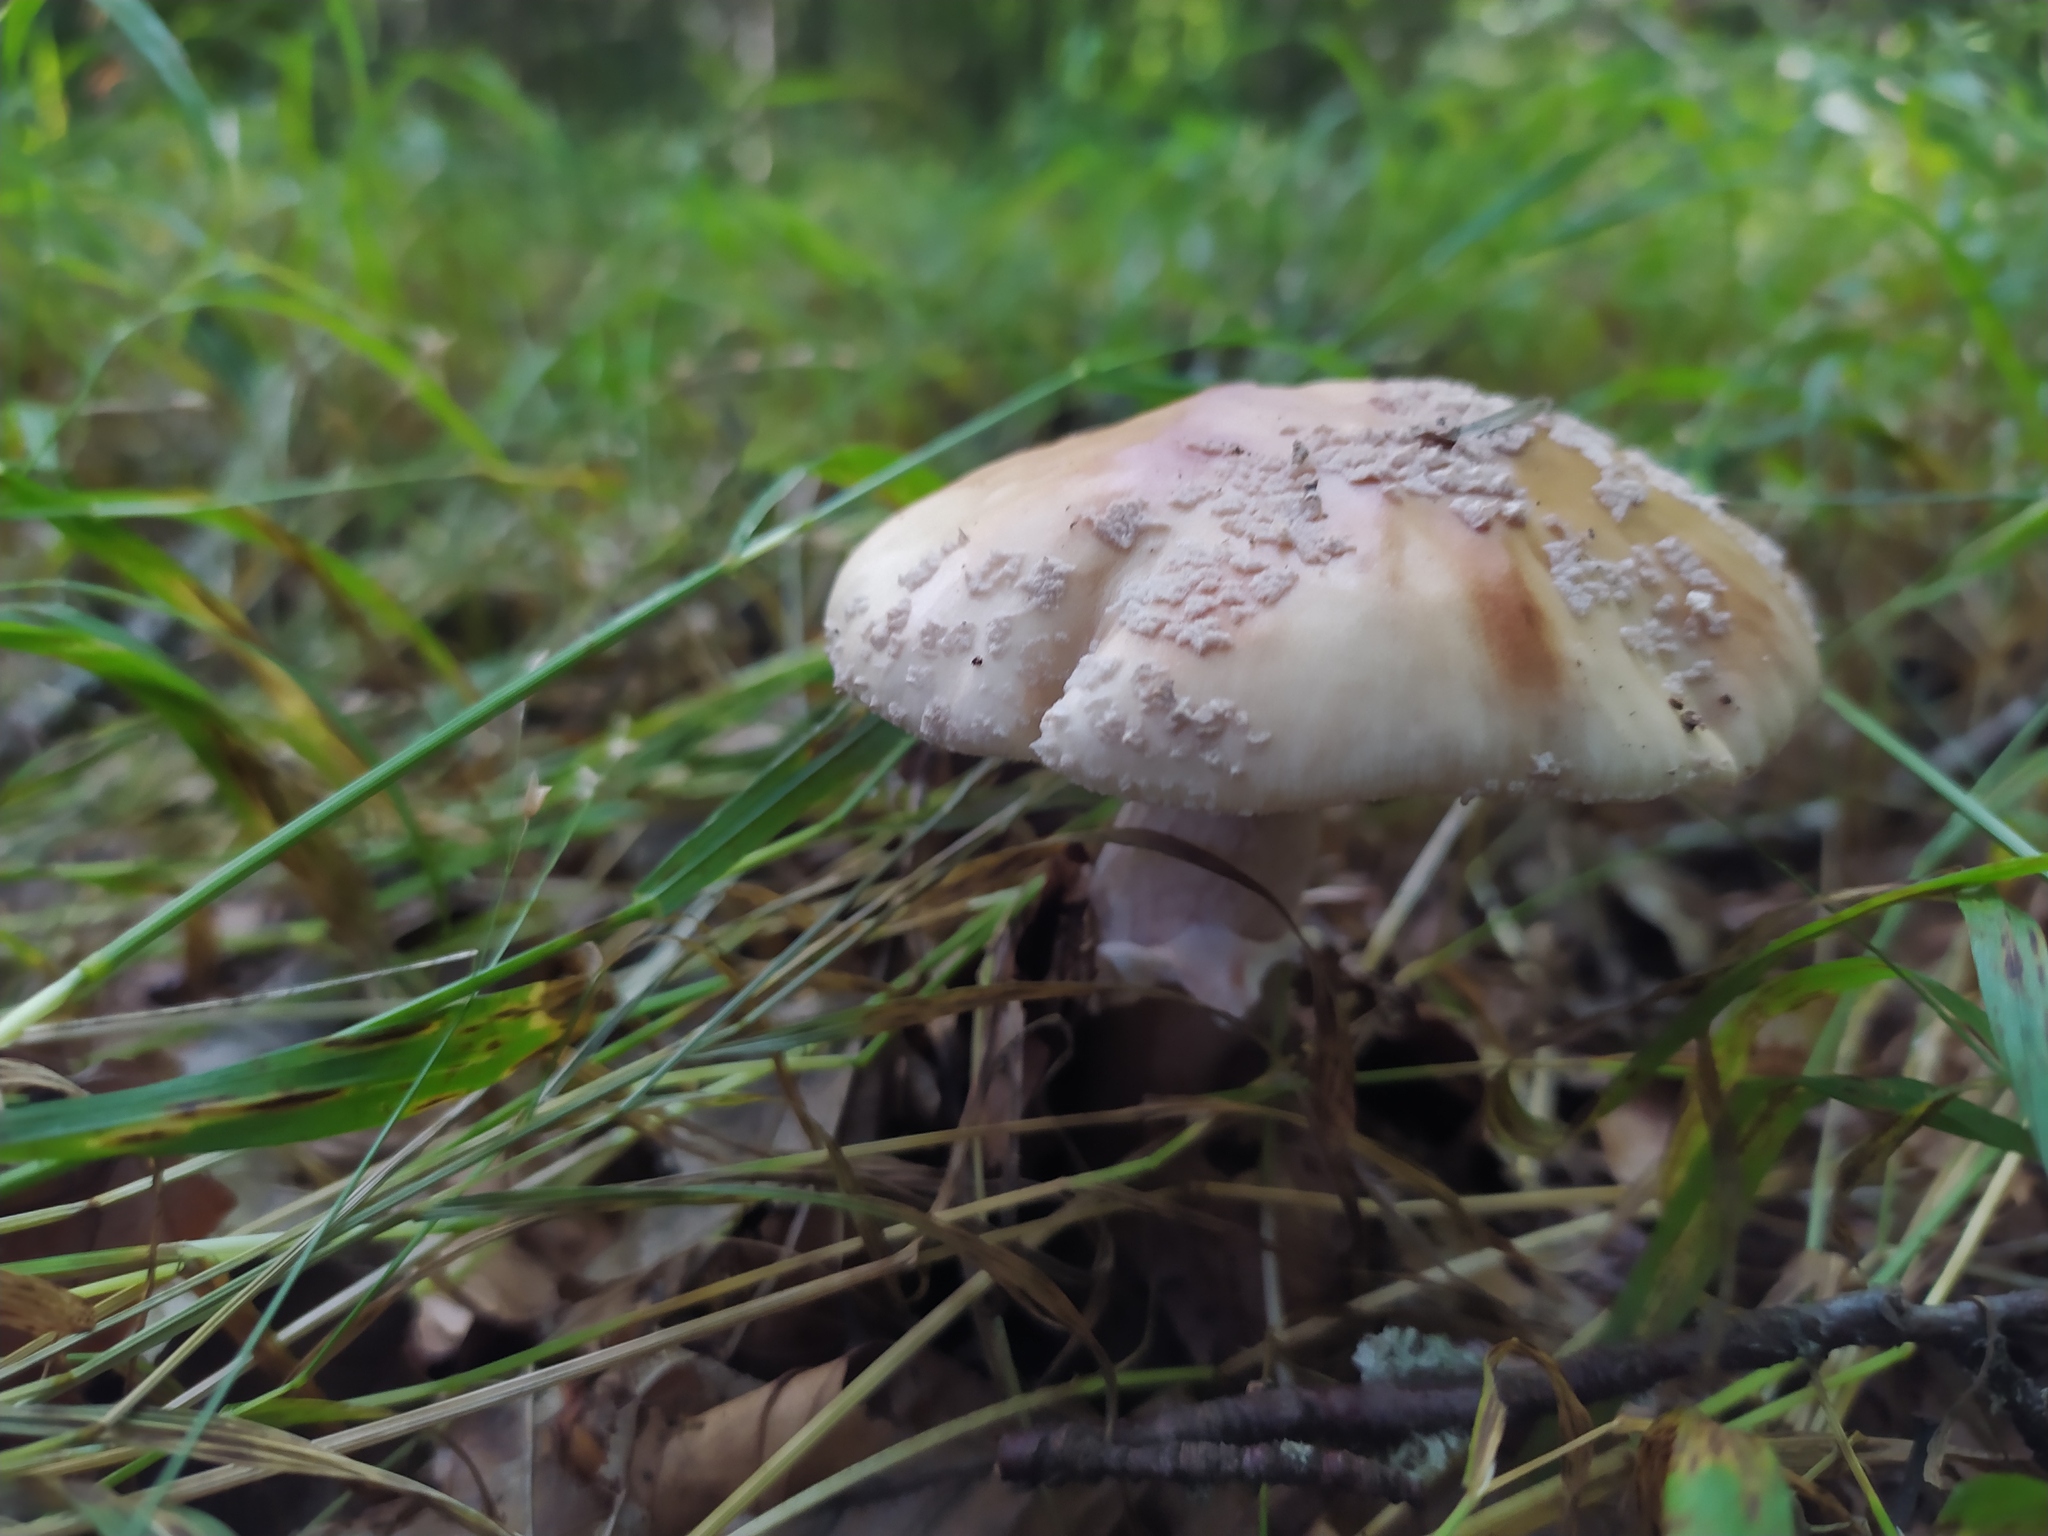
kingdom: Fungi
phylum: Basidiomycota
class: Agaricomycetes
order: Agaricales
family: Amanitaceae
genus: Amanita
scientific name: Amanita rubescens
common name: Blusher
